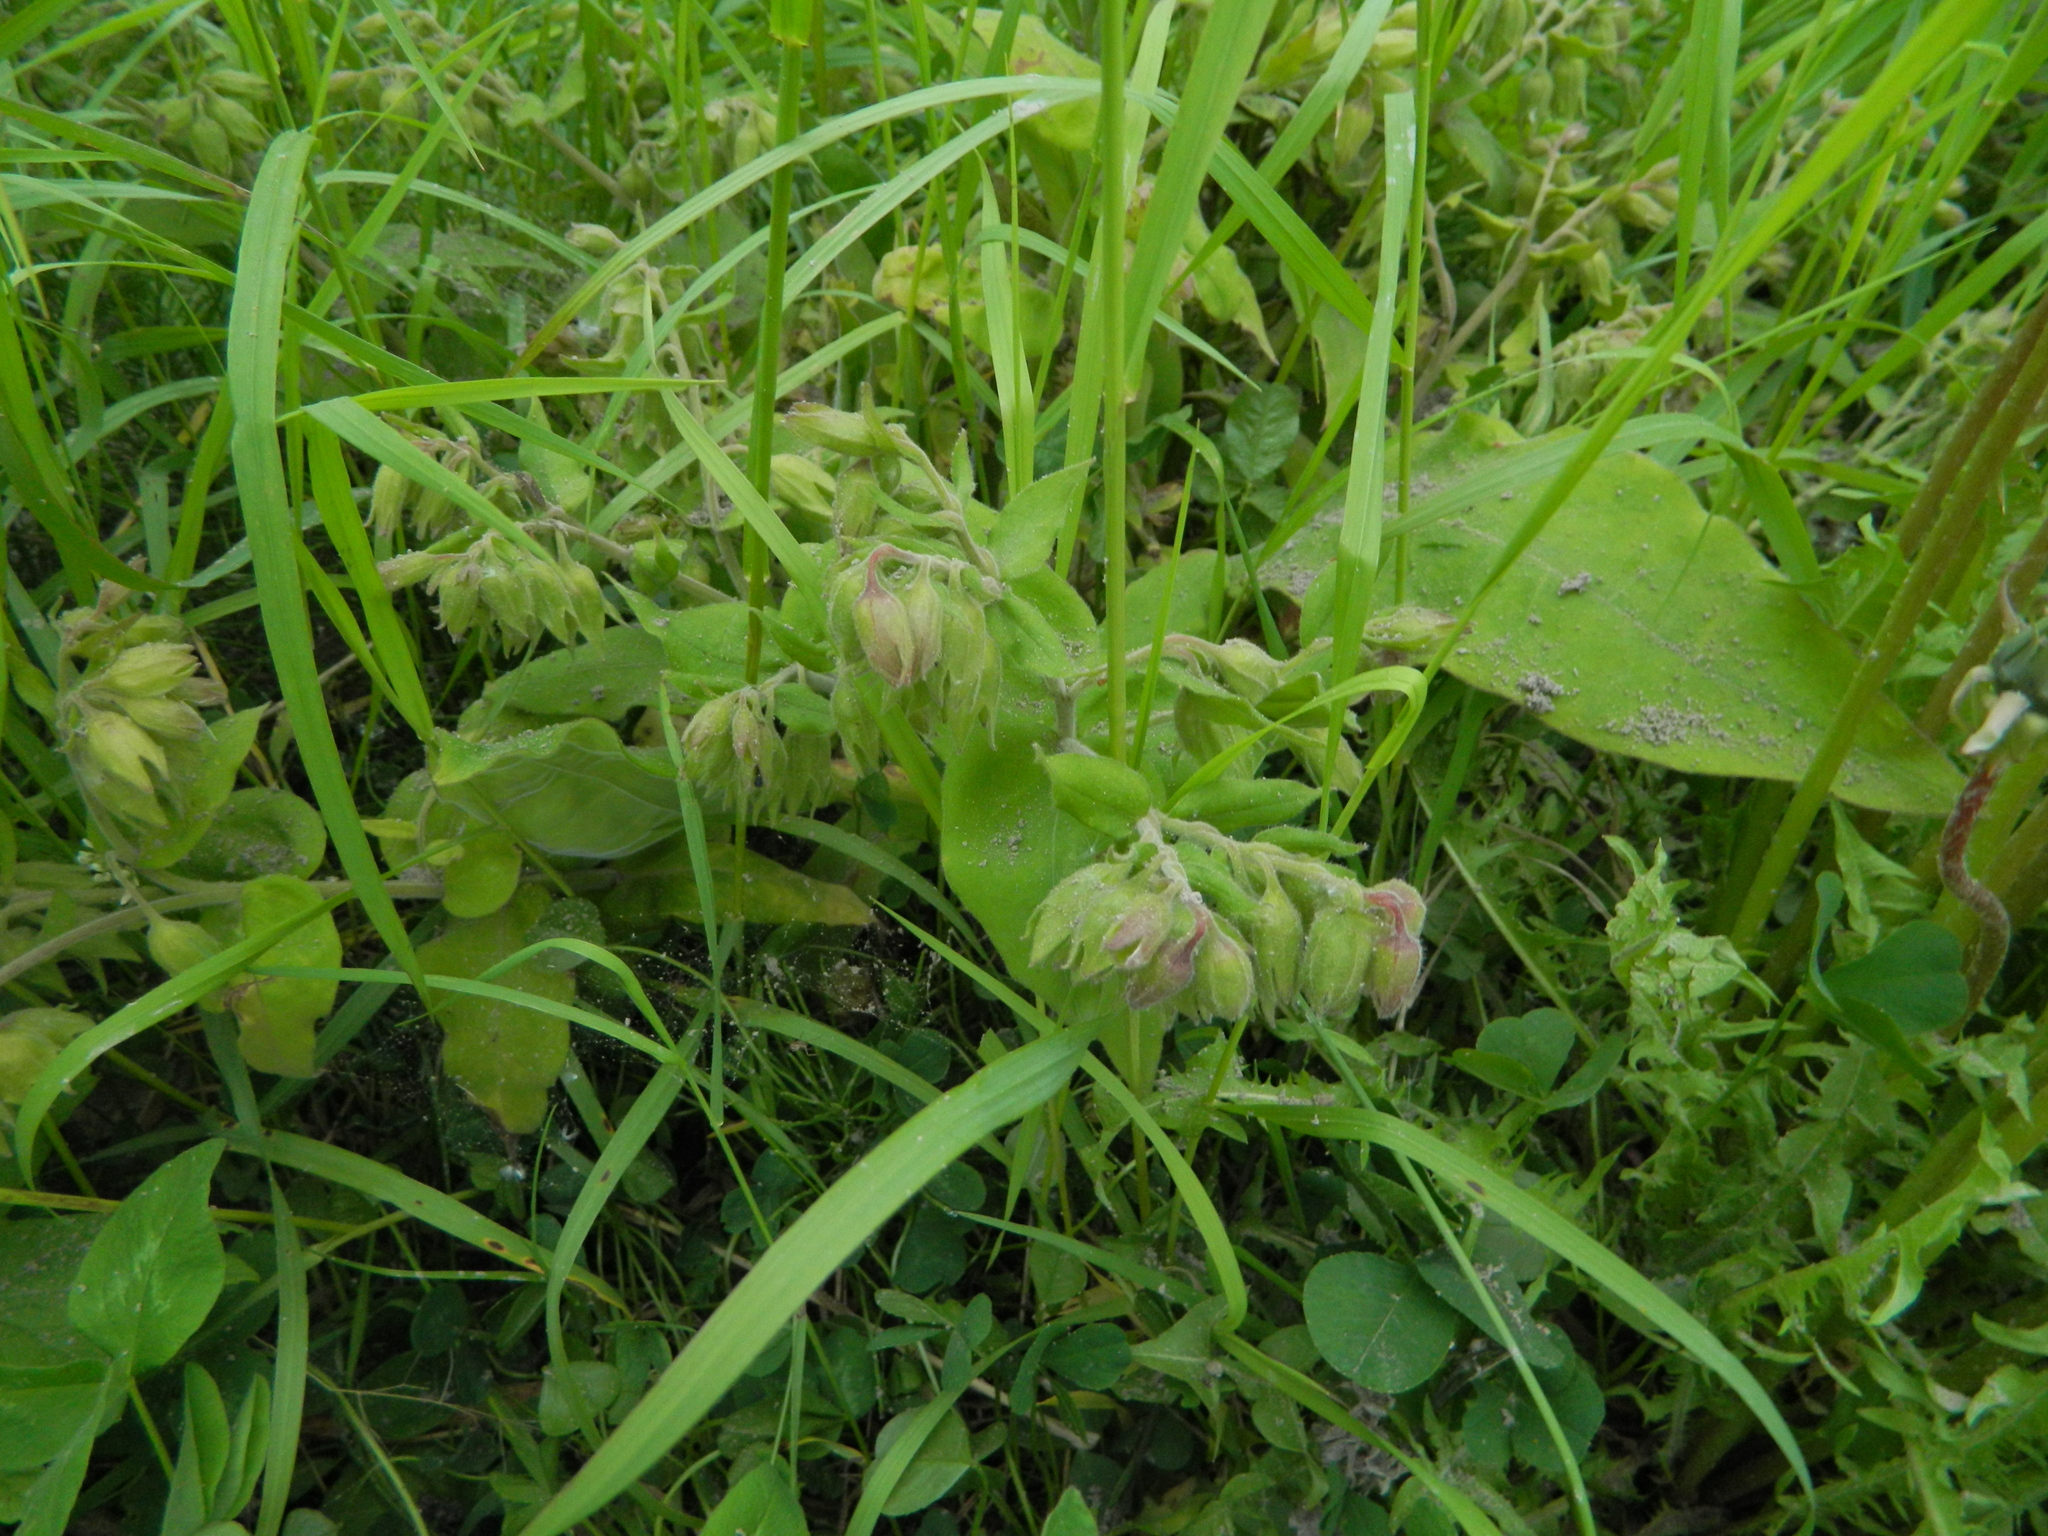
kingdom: Plantae
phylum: Tracheophyta
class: Magnoliopsida
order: Boraginales
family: Boraginaceae
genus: Pulmonaria
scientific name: Pulmonaria mollis
